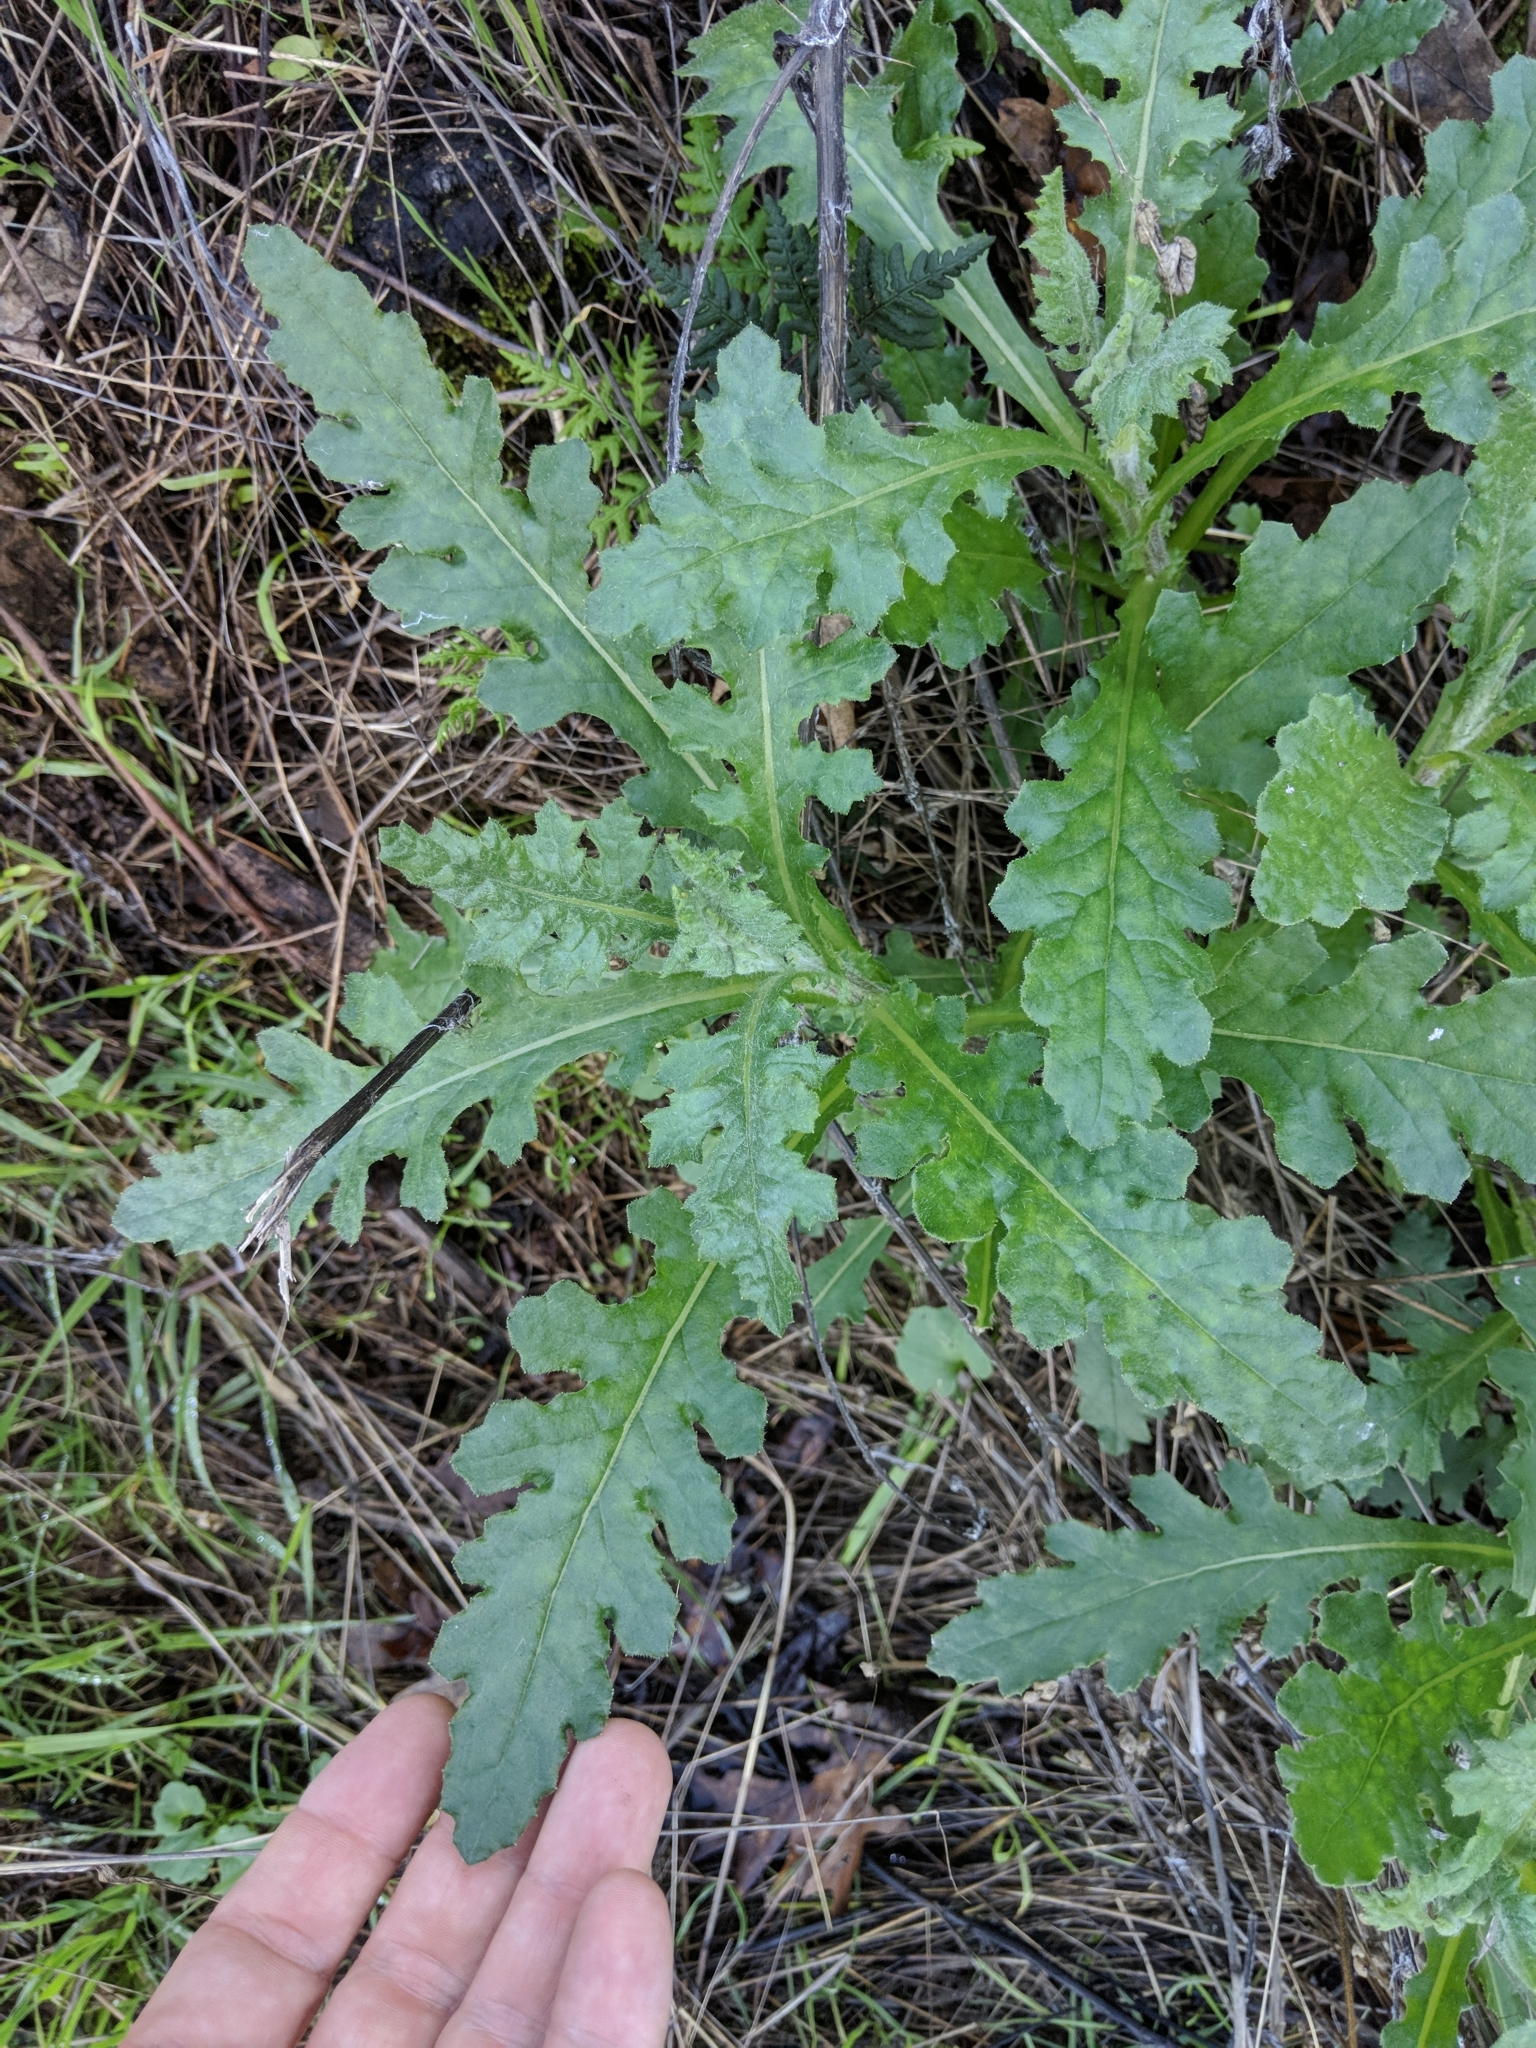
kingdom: Plantae
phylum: Tracheophyta
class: Magnoliopsida
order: Asterales
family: Asteraceae
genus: Senecio
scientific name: Senecio glomeratus
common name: Cutleaf burnweed
